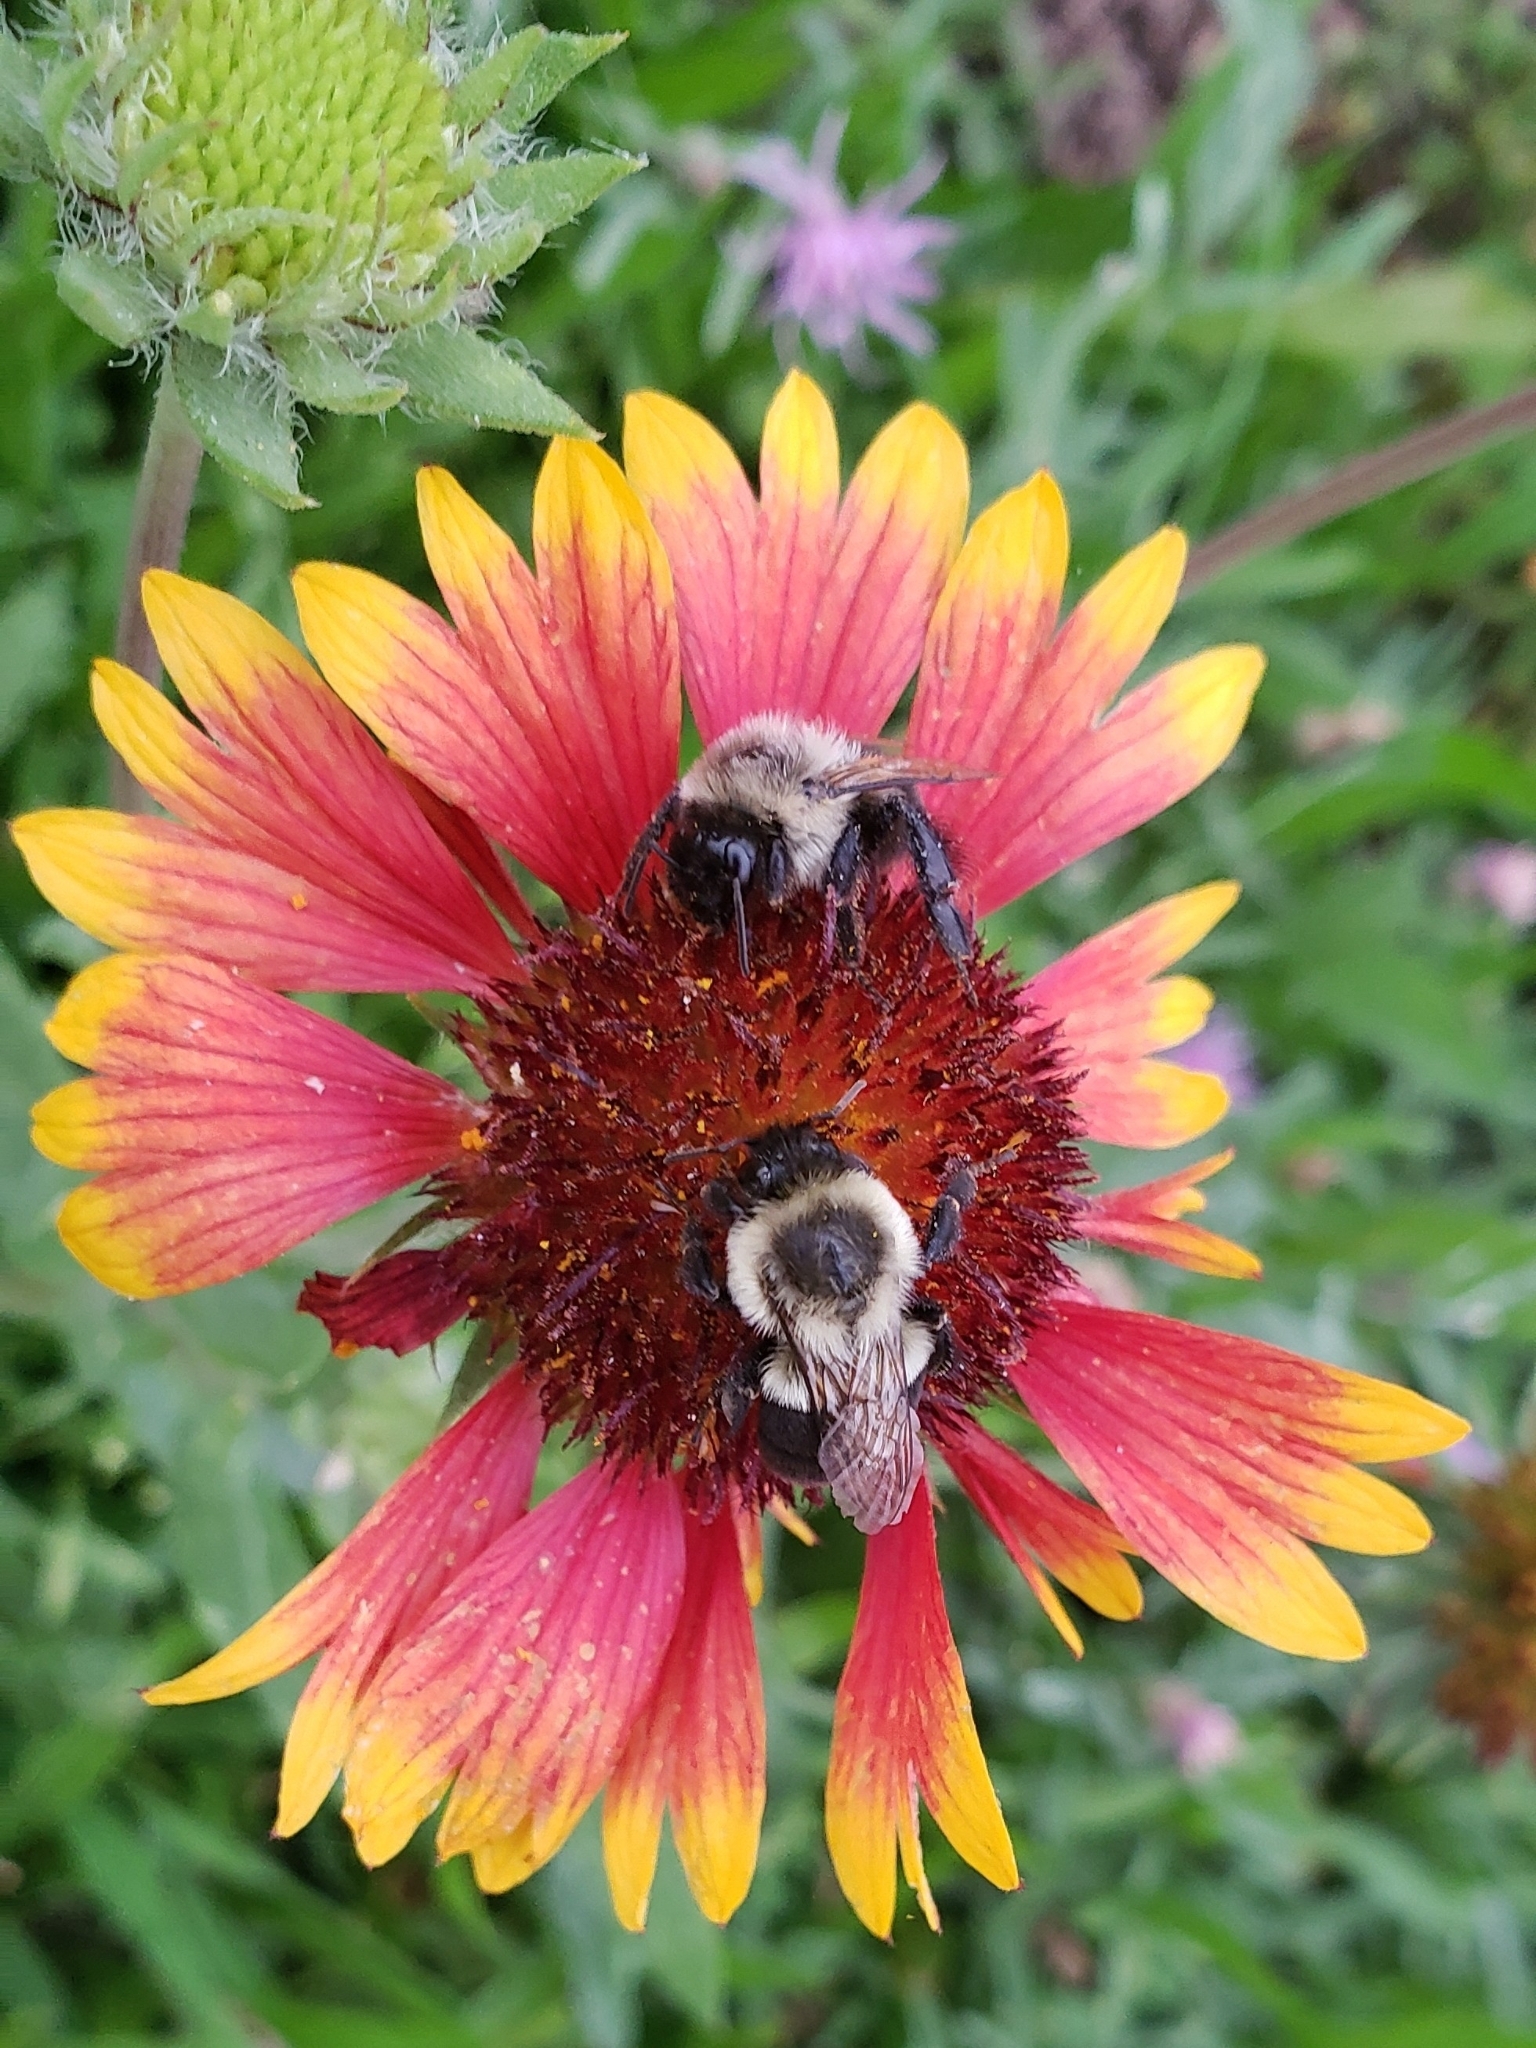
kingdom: Plantae
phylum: Tracheophyta
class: Magnoliopsida
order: Asterales
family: Asteraceae
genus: Gaillardia
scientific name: Gaillardia pulchella
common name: Firewheel
